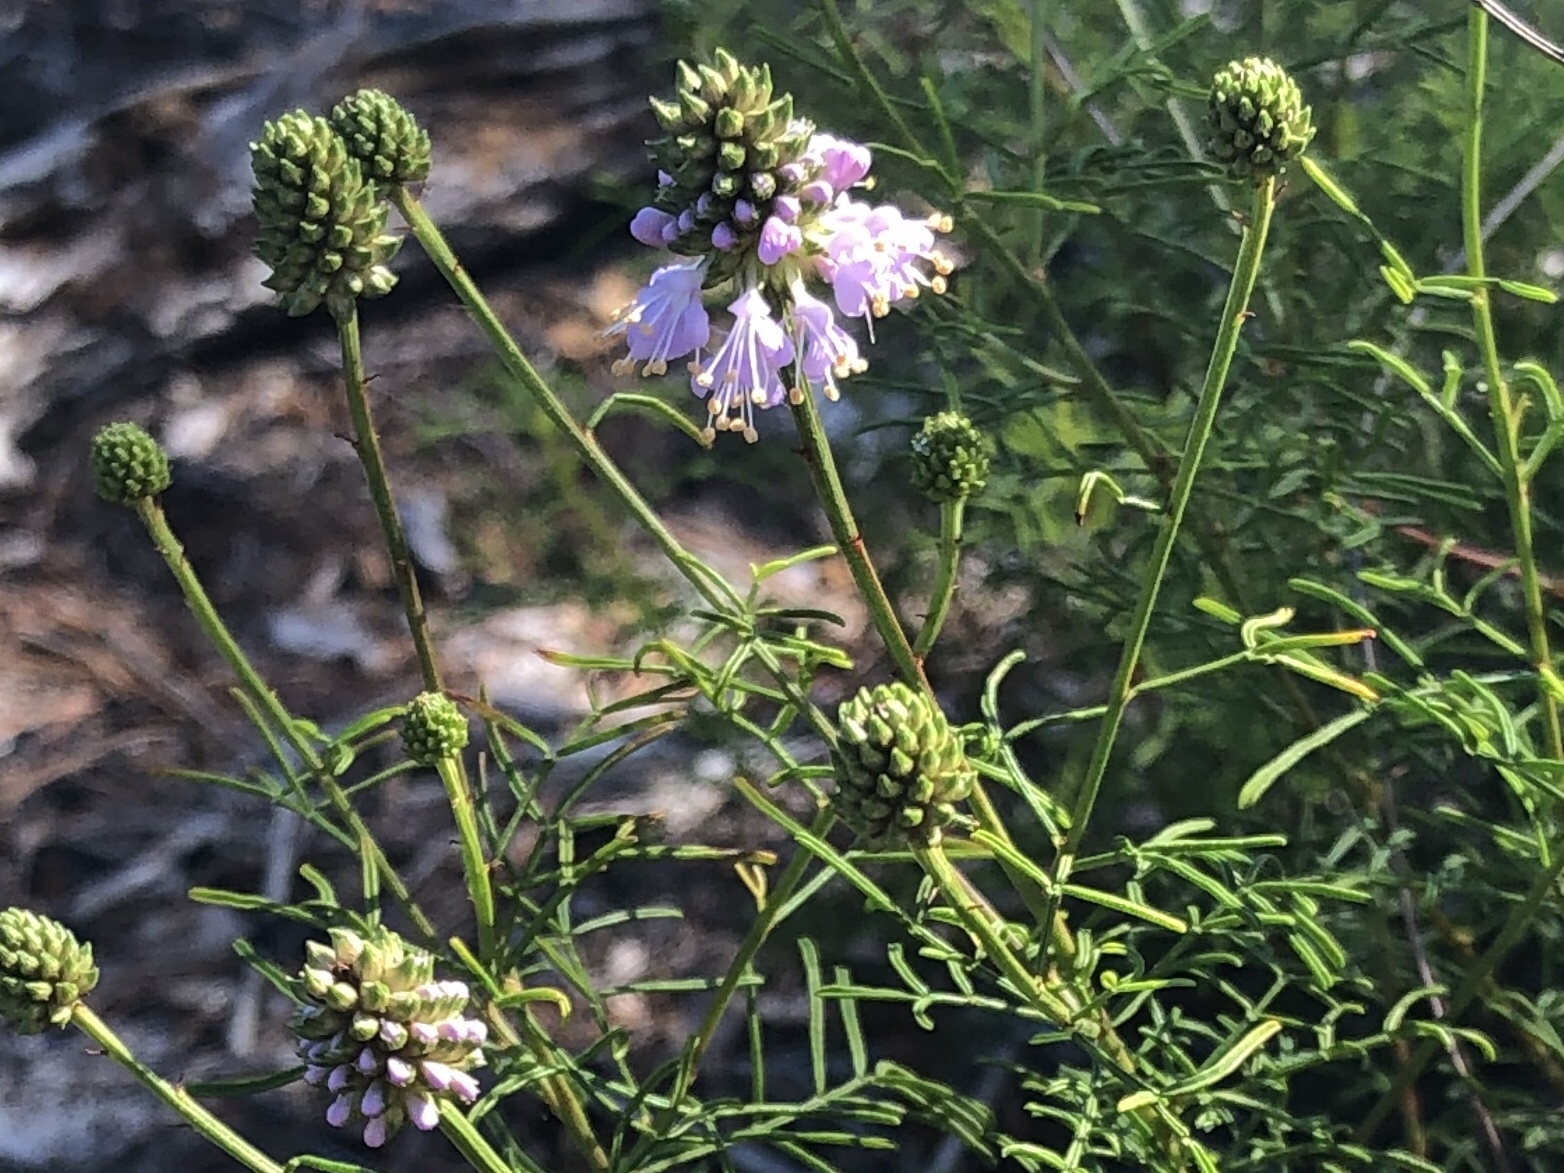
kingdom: Plantae
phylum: Tracheophyta
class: Magnoliopsida
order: Fabales
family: Fabaceae
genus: Dalea
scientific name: Dalea feayi
